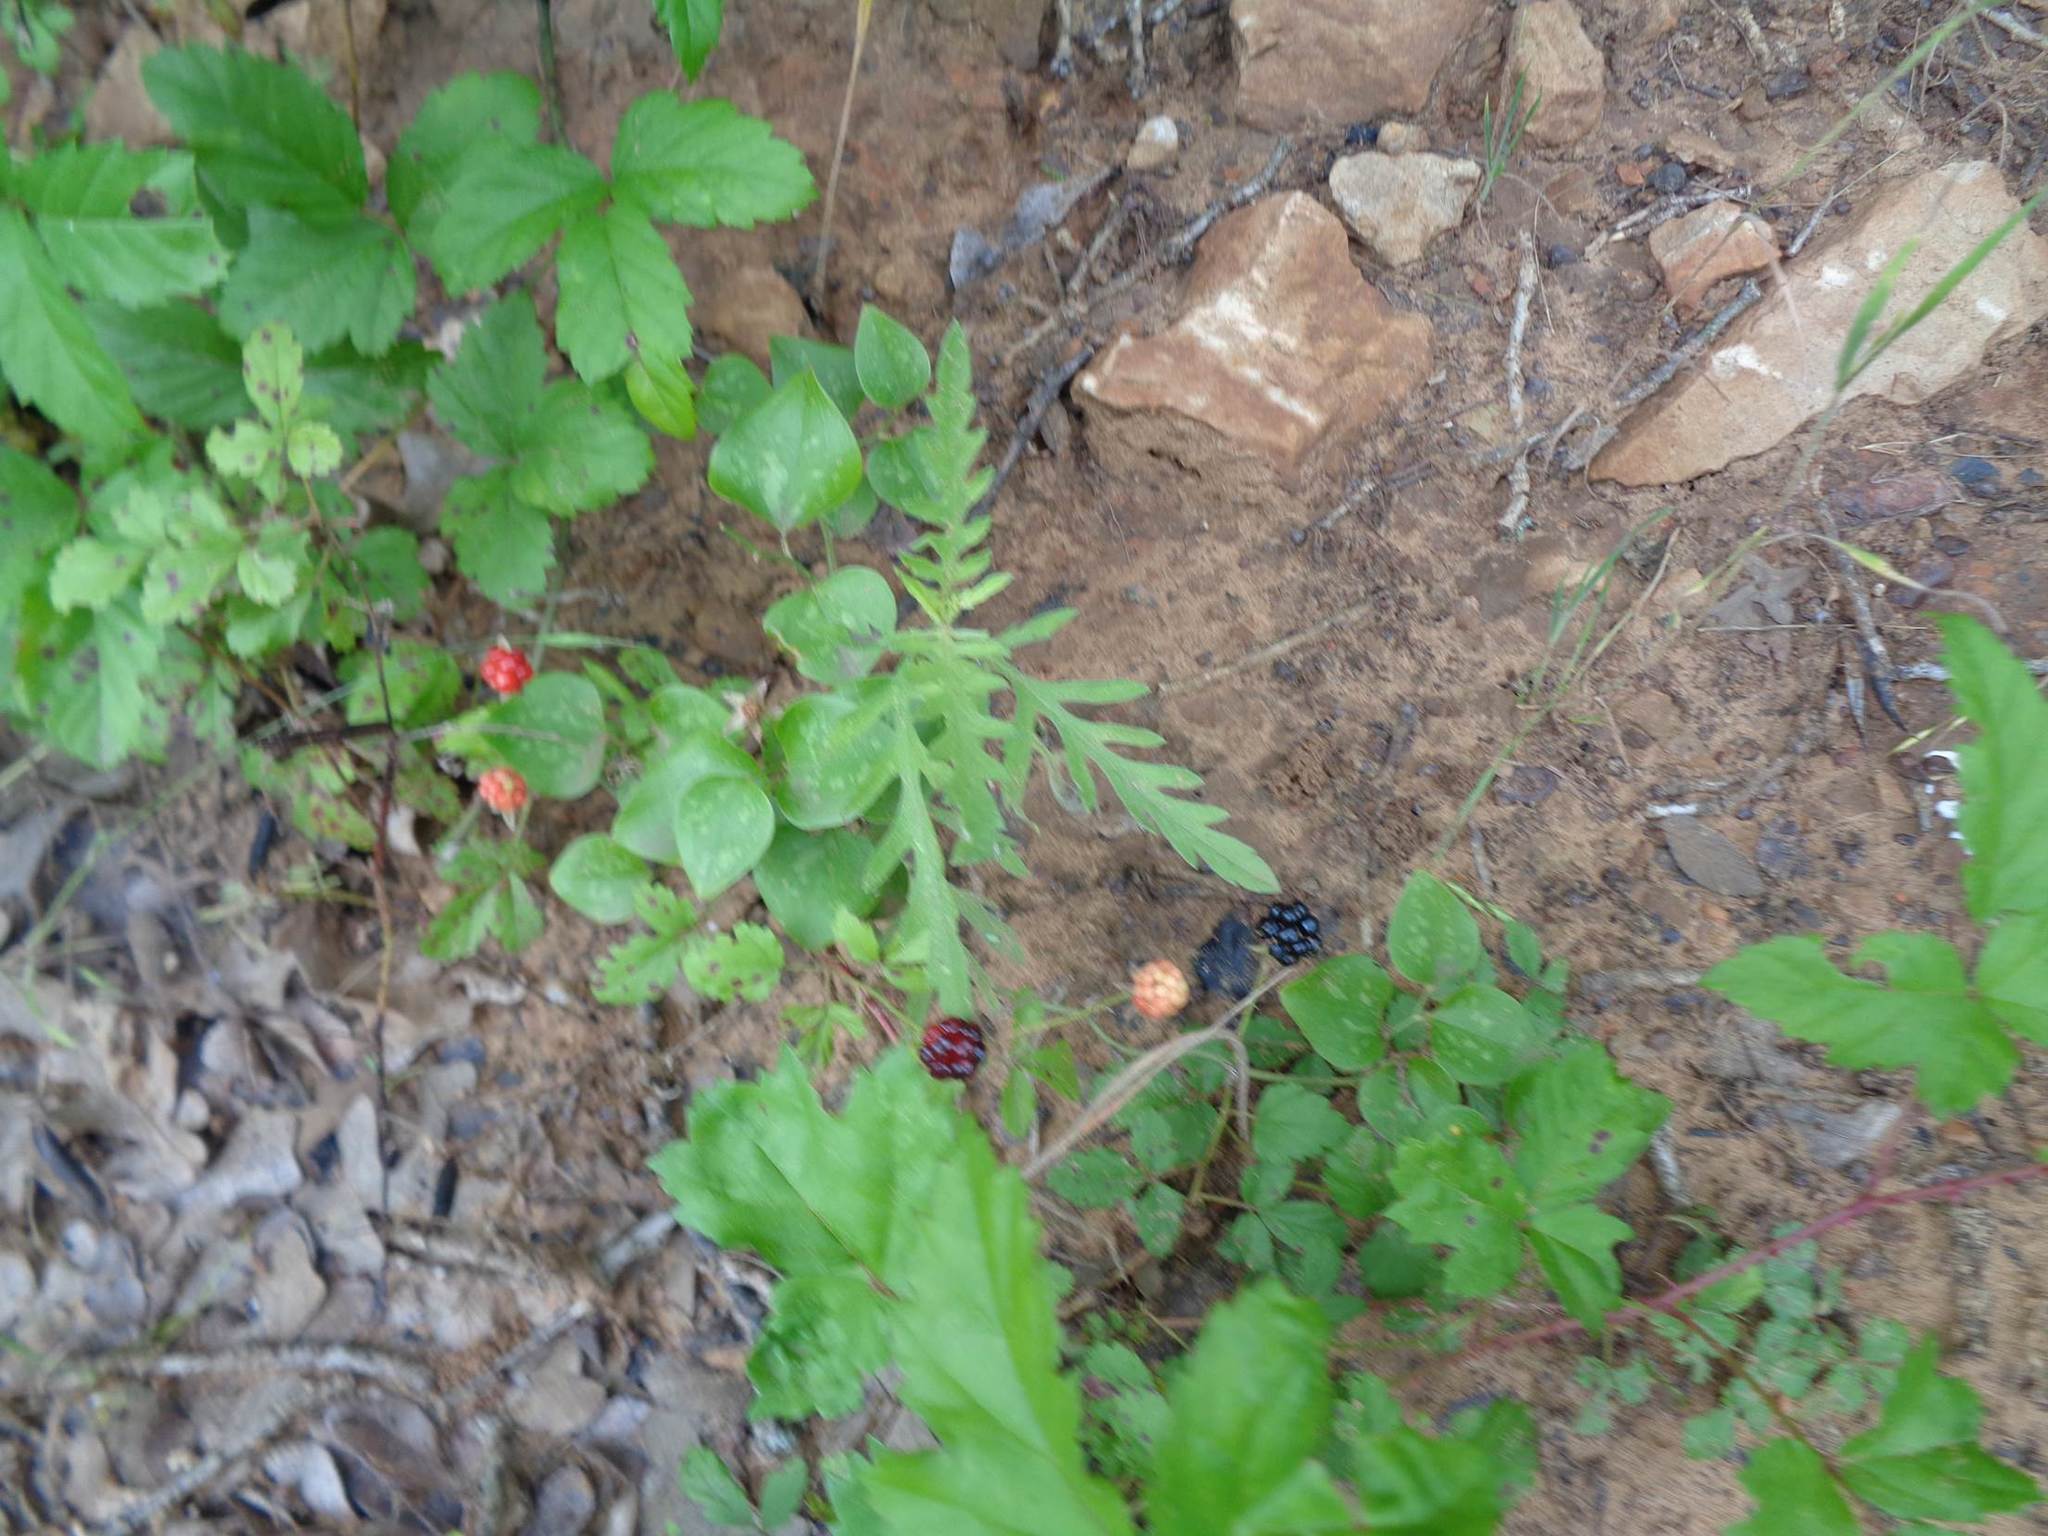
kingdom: Plantae
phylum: Tracheophyta
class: Magnoliopsida
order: Rosales
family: Rosaceae
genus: Rubus
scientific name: Rubus trivialis
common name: Southern dewberry
